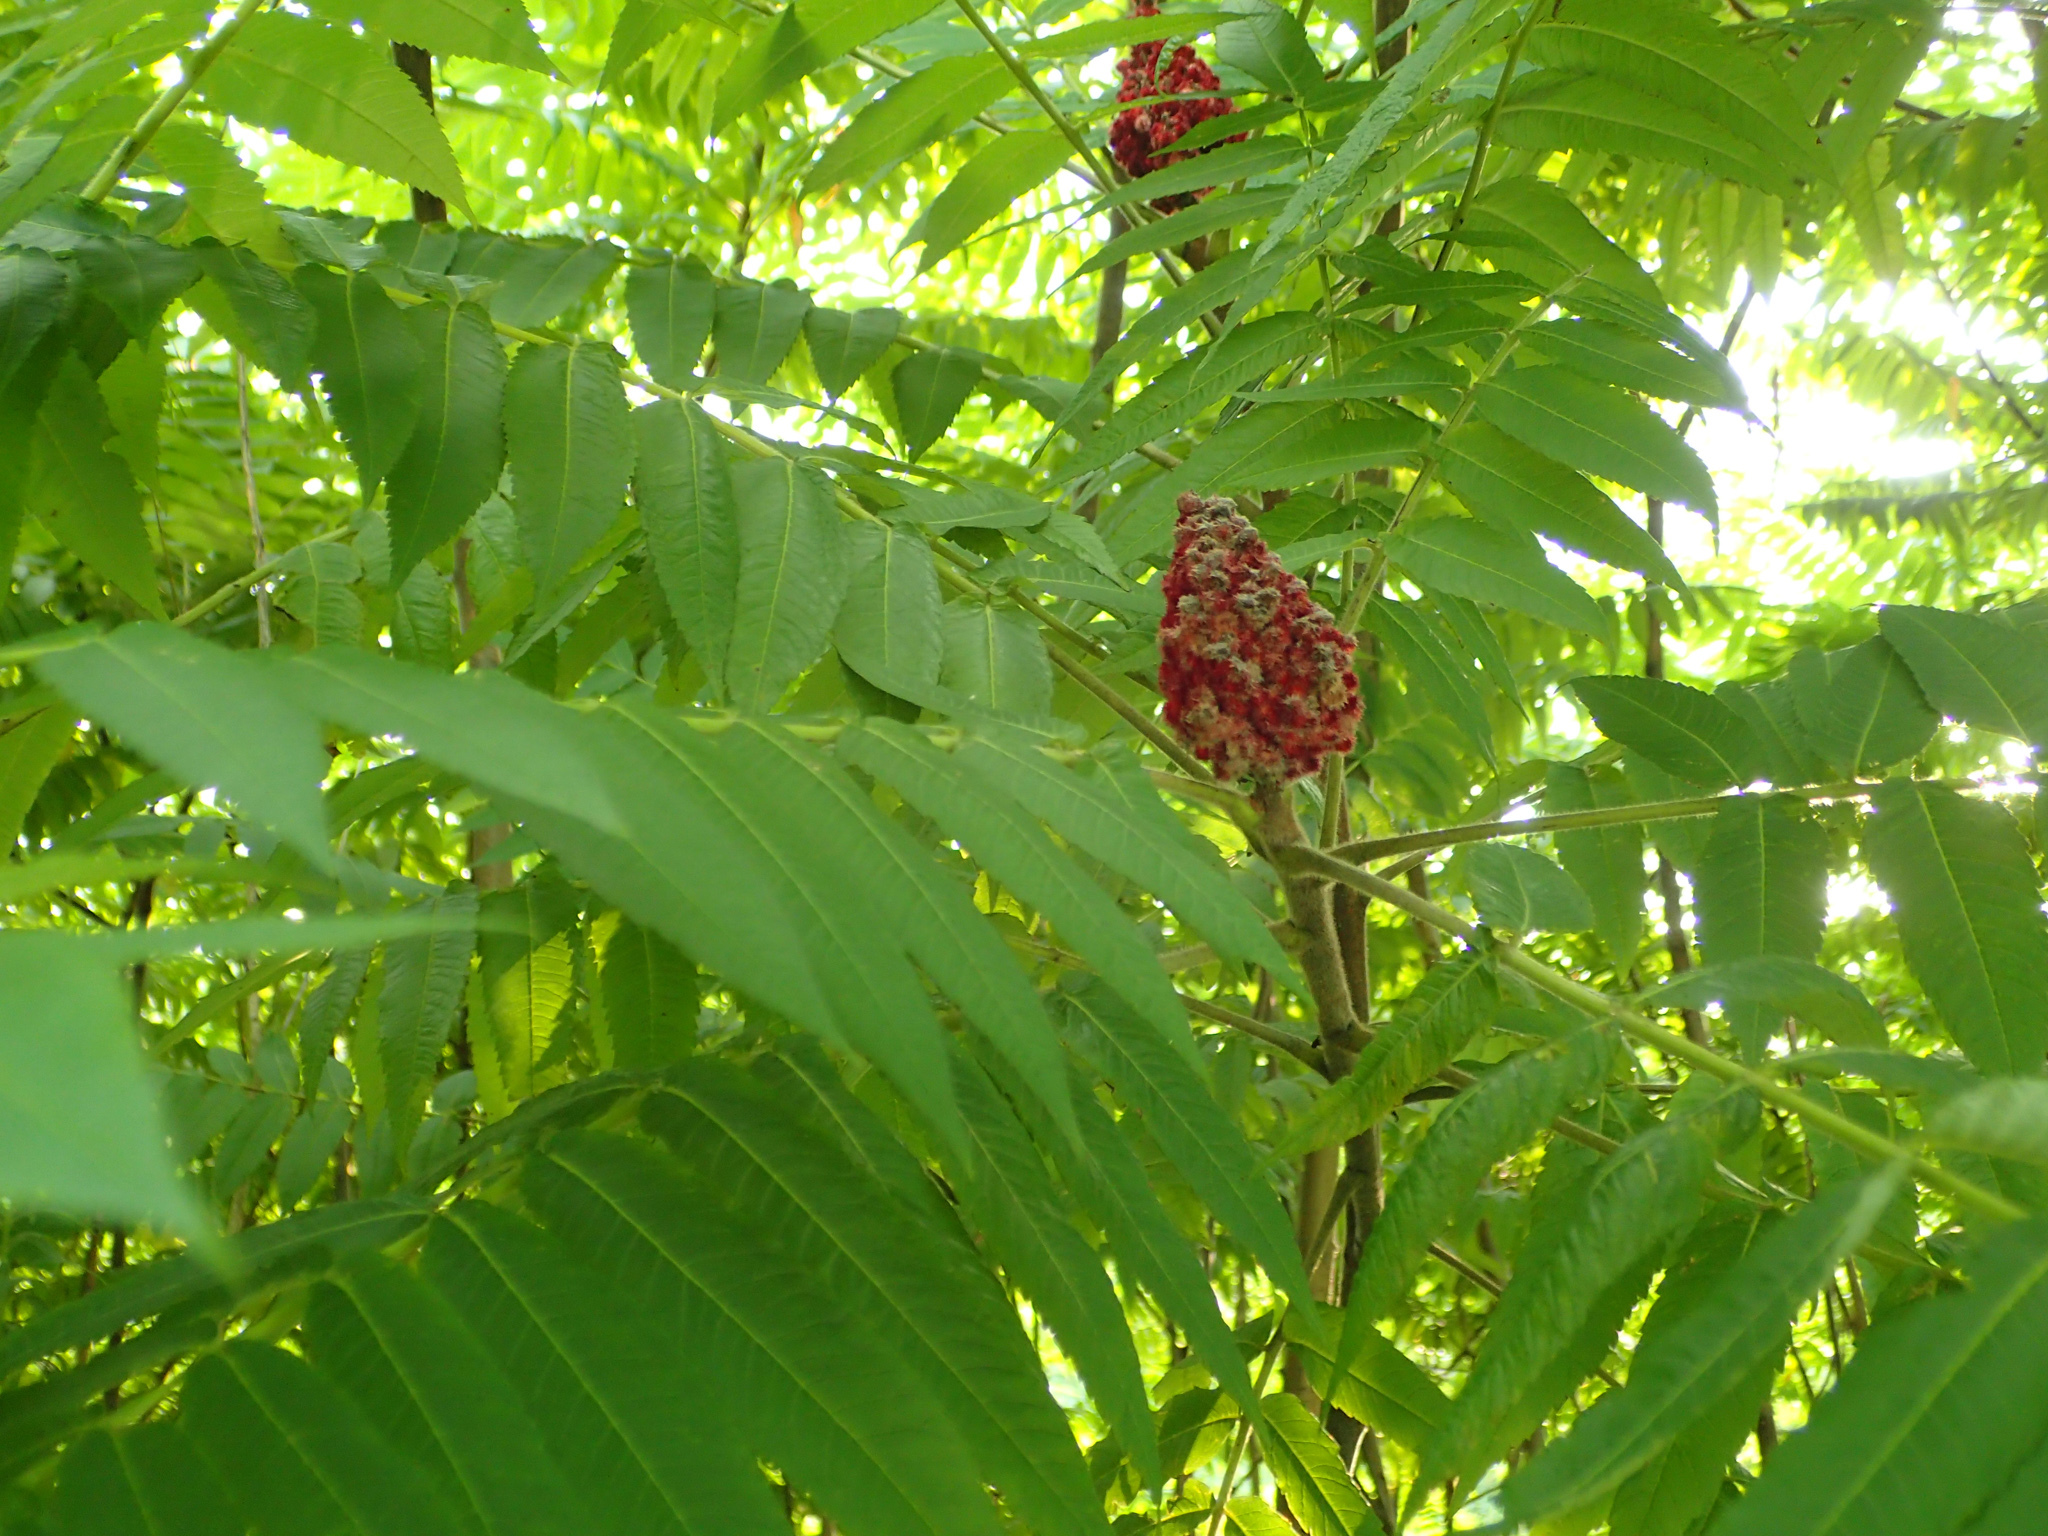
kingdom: Plantae
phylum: Tracheophyta
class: Magnoliopsida
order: Sapindales
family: Anacardiaceae
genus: Rhus
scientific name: Rhus typhina
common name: Staghorn sumac
